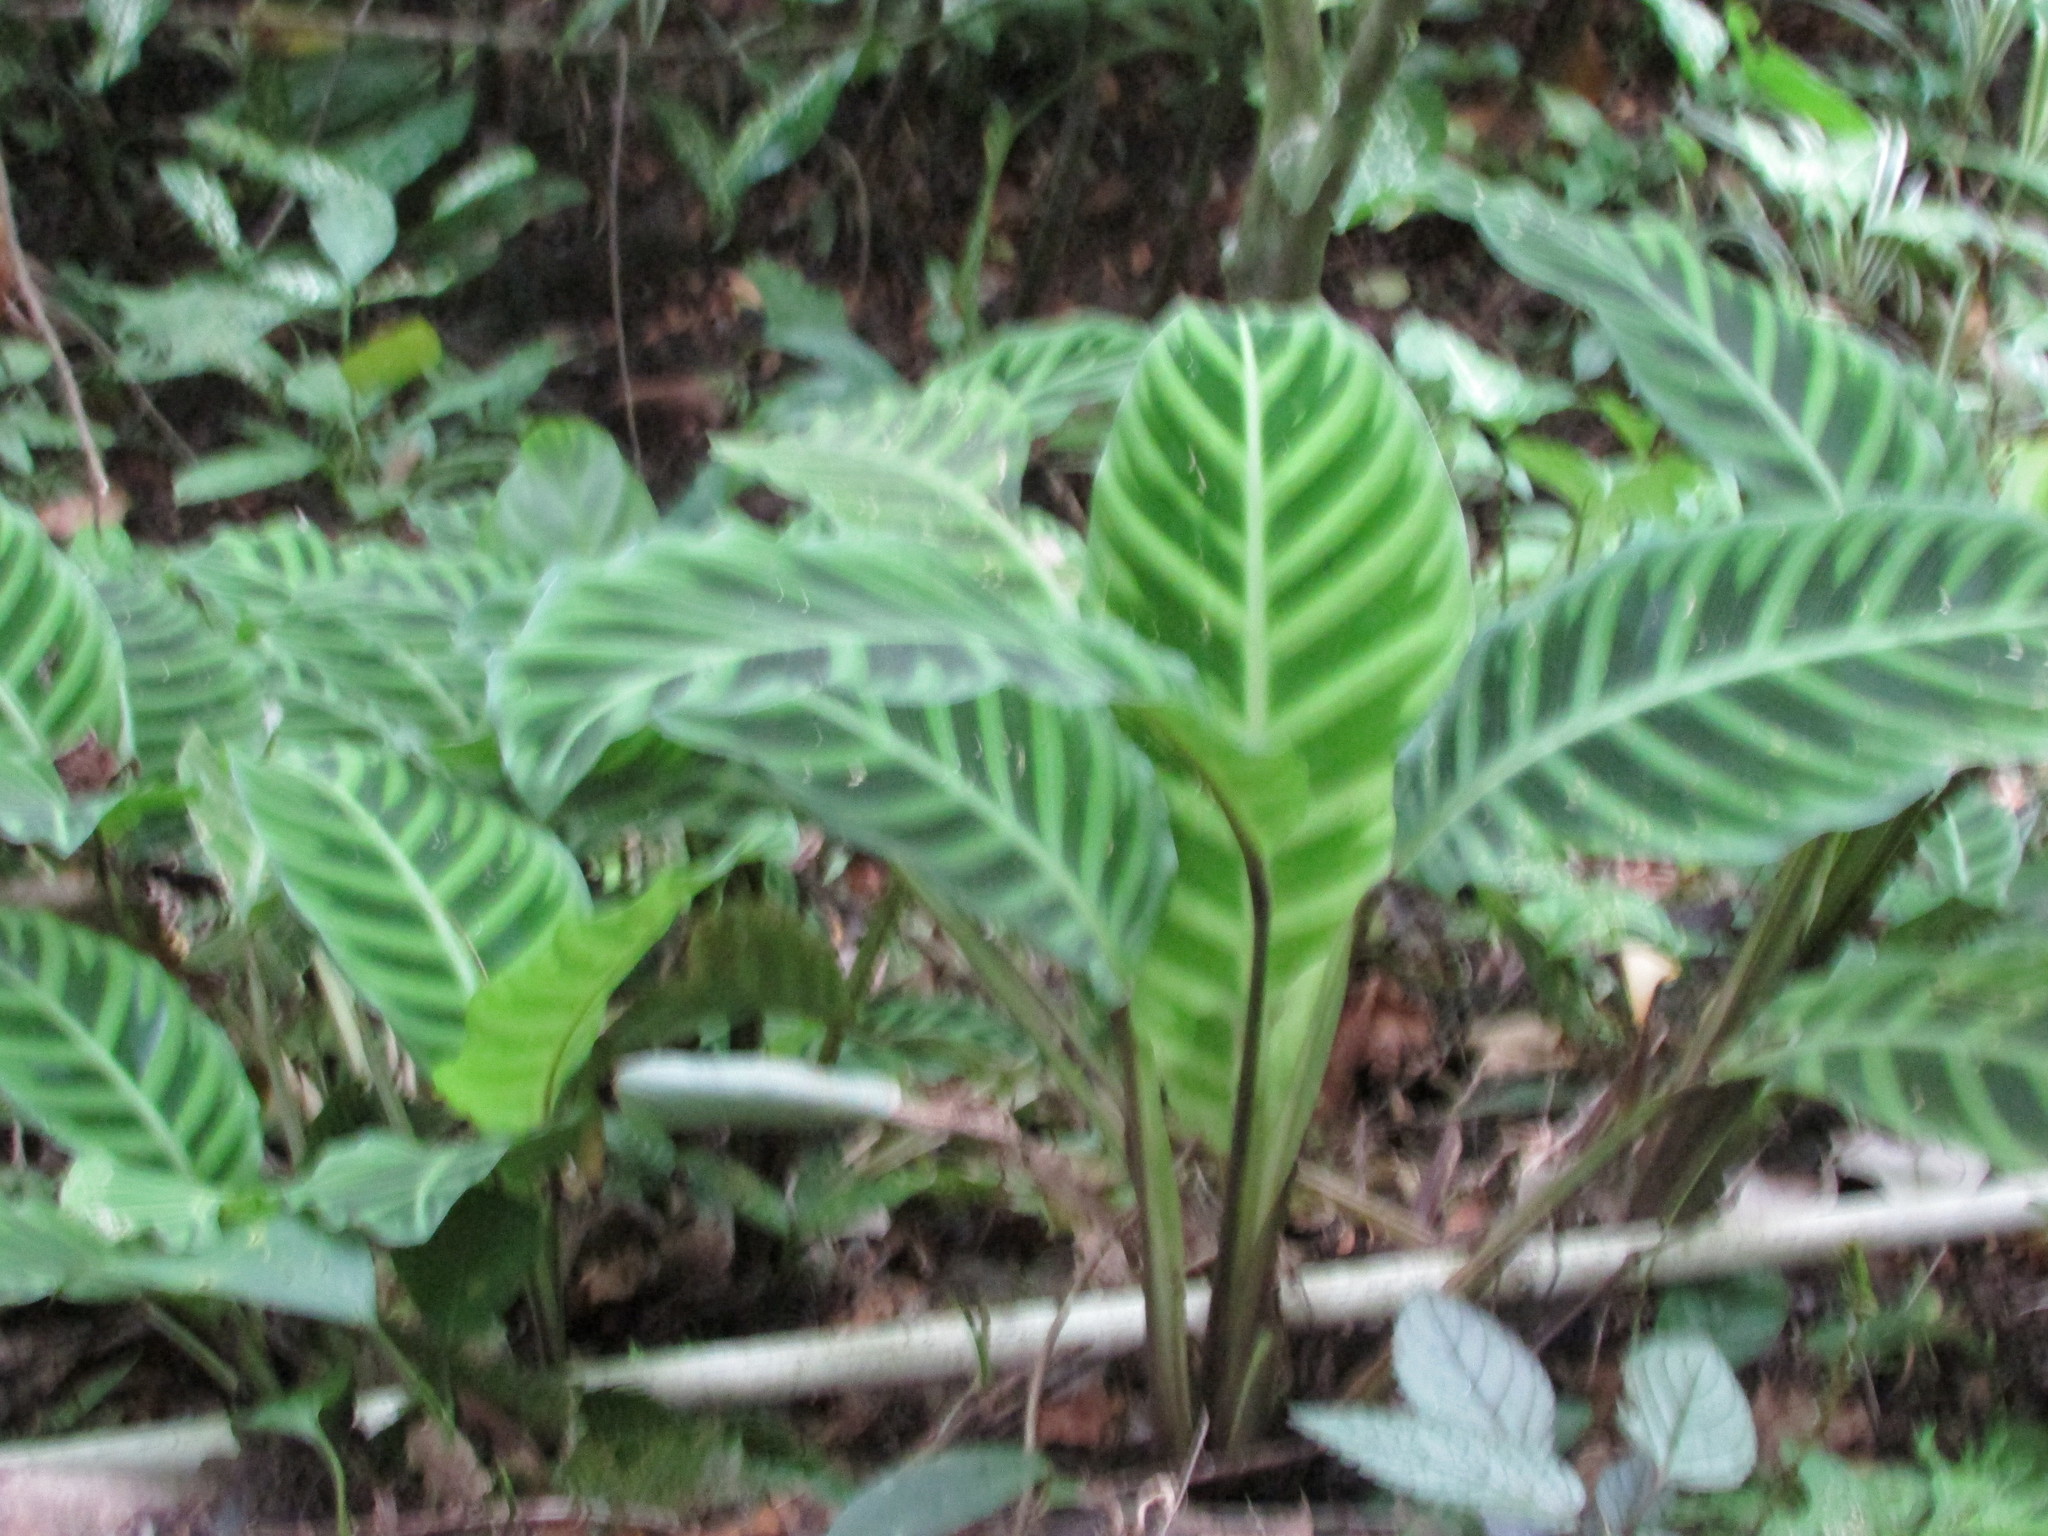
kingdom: Plantae
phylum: Tracheophyta
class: Liliopsida
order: Zingiberales
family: Marantaceae
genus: Goeppertia
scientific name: Goeppertia zebrina
